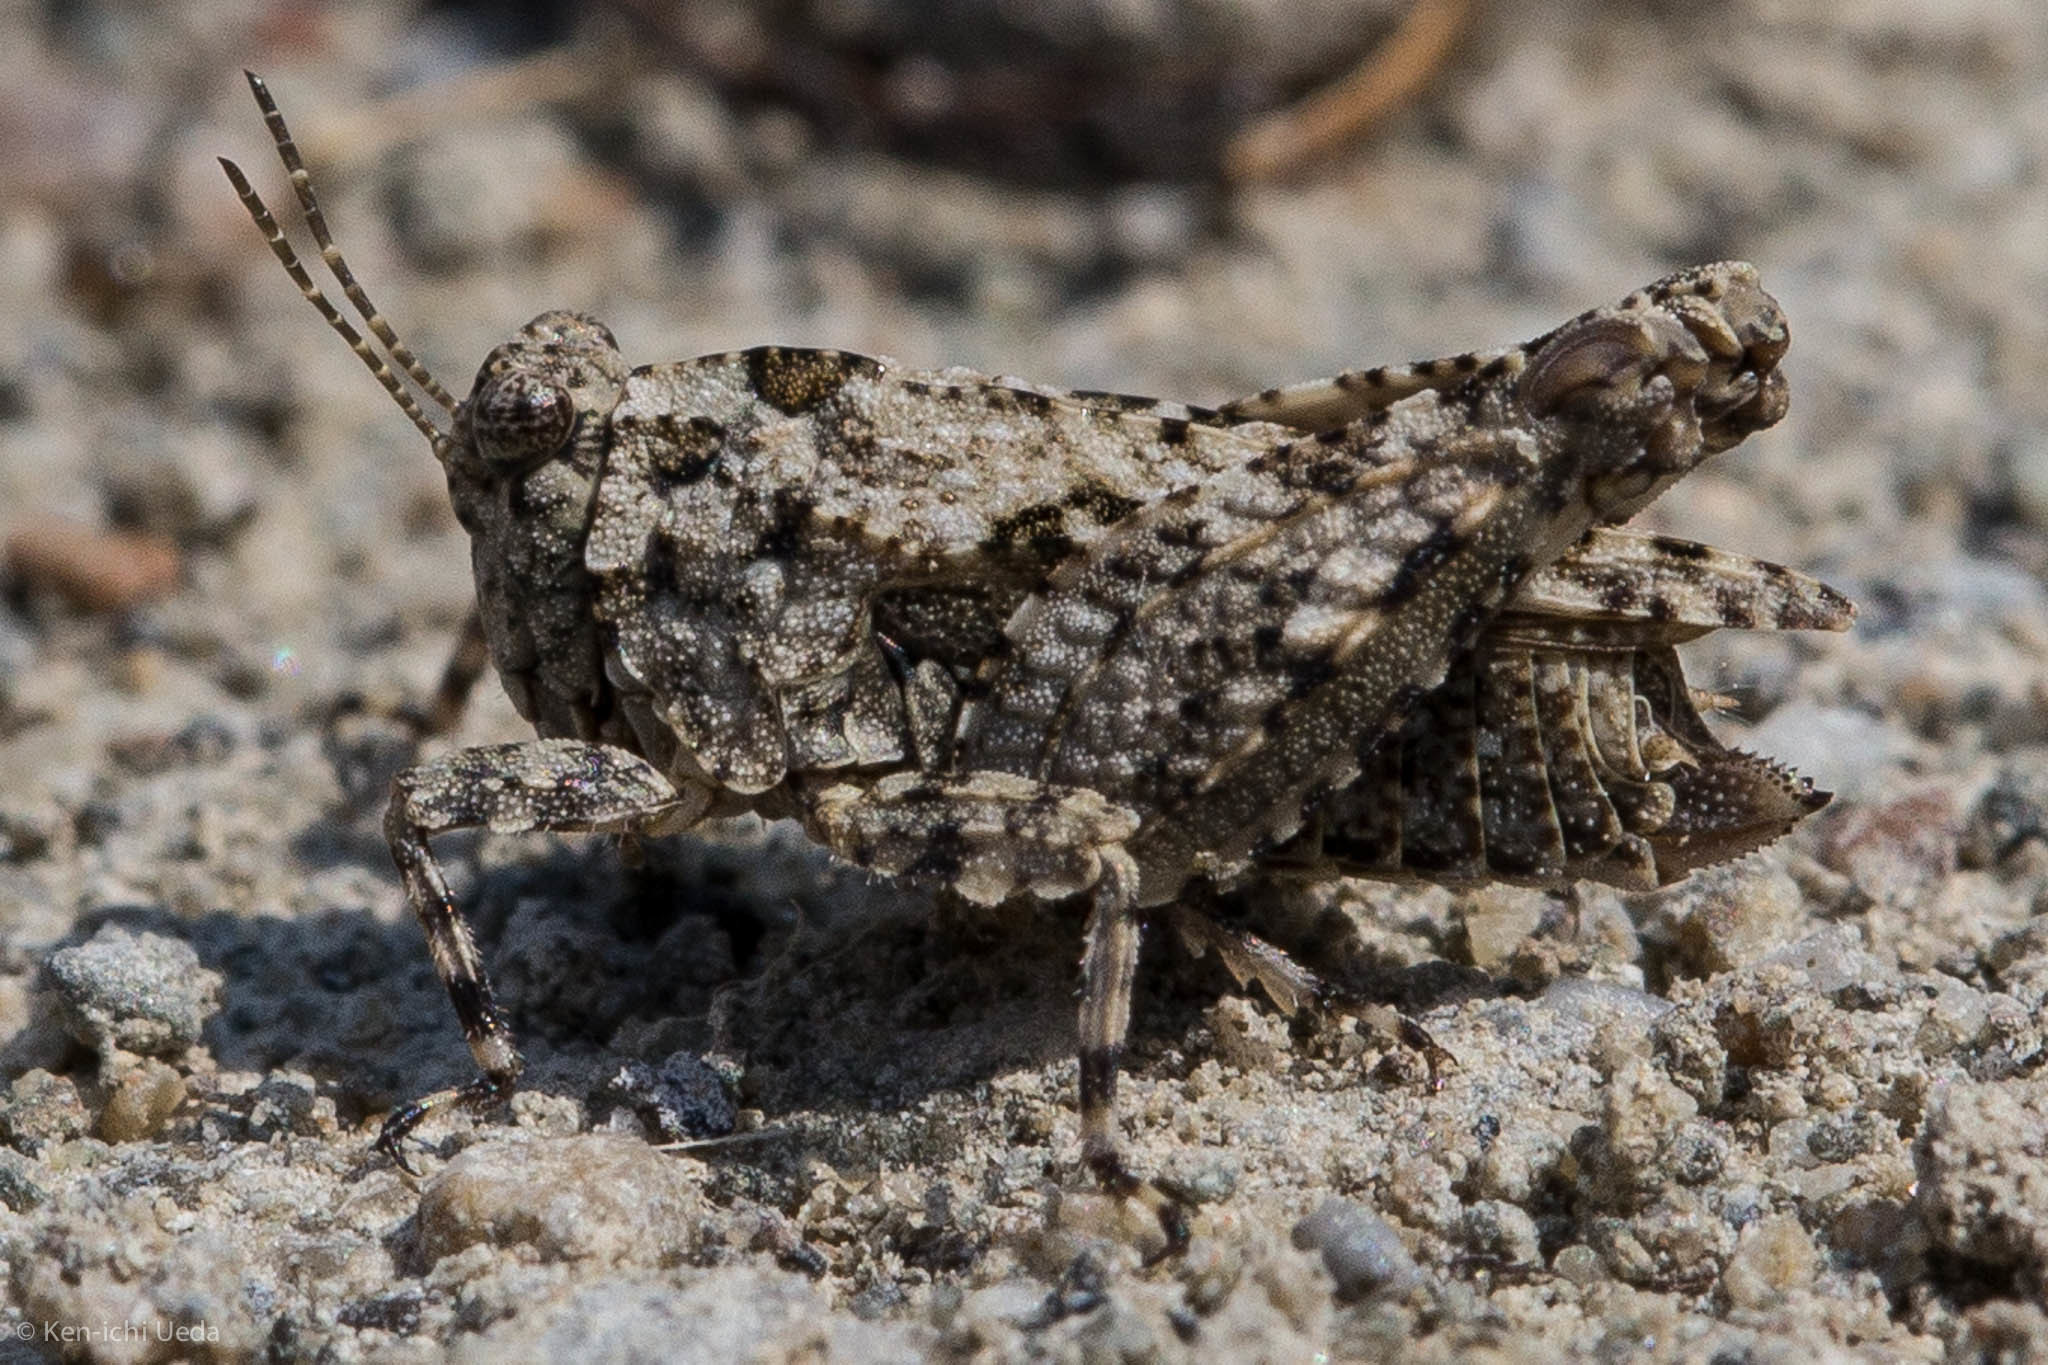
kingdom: Animalia
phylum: Arthropoda
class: Insecta
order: Orthoptera
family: Tetrigidae
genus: Paratettix
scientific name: Paratettix mexicanus
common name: Mexican pygmy grasshopper
